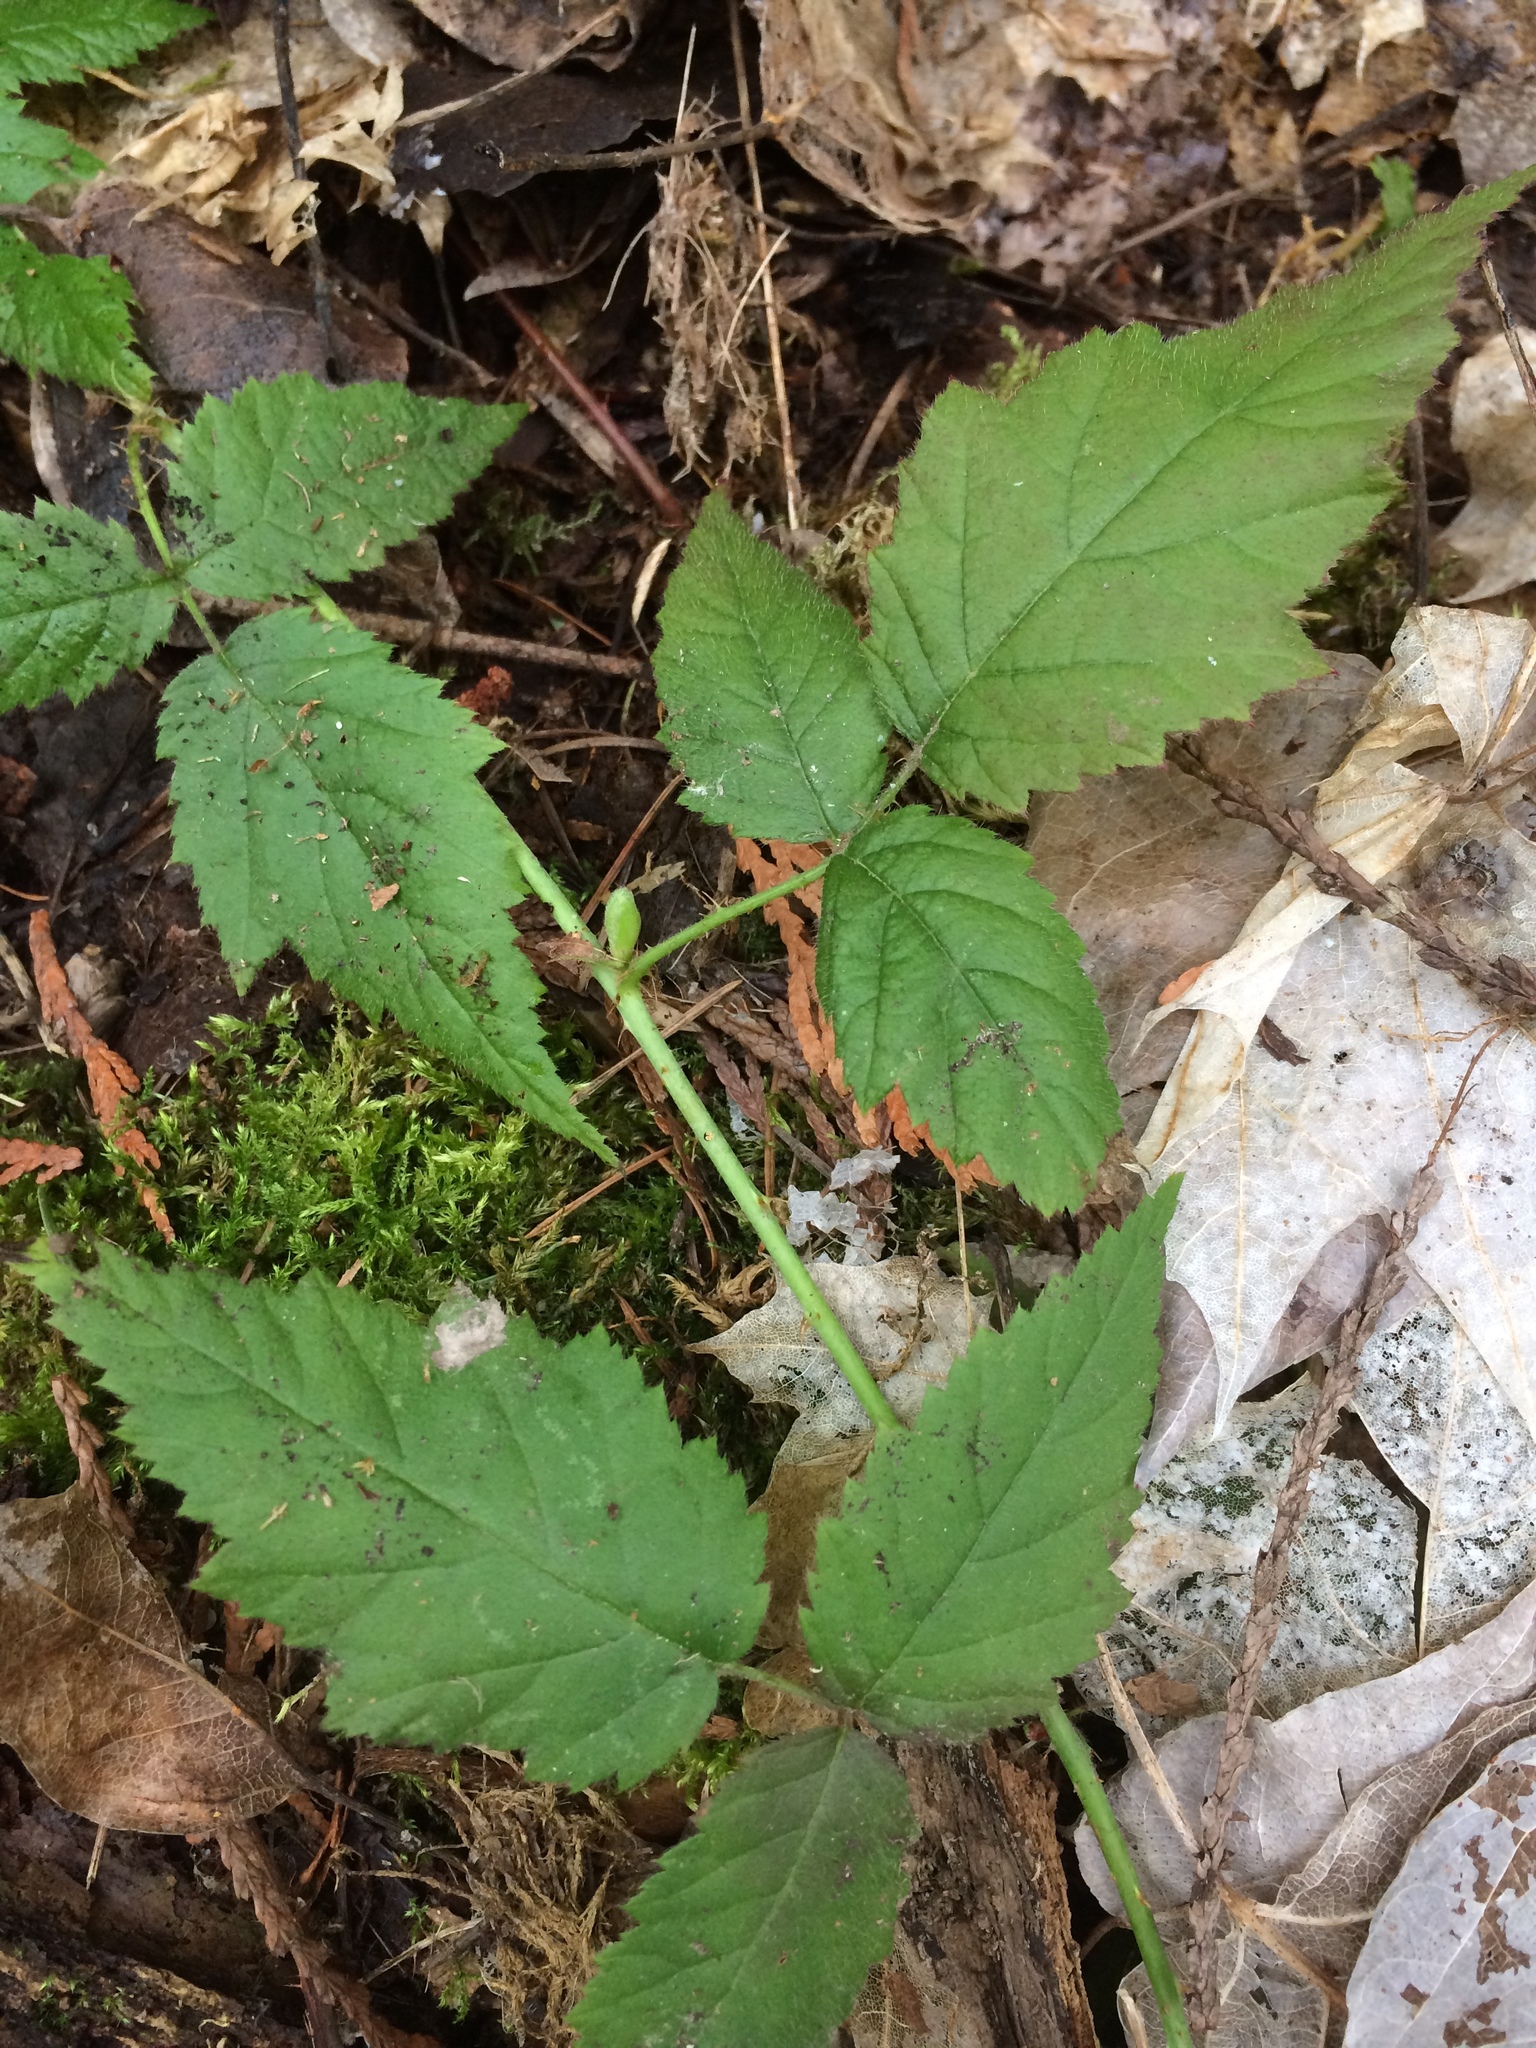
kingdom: Plantae
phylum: Tracheophyta
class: Magnoliopsida
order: Rosales
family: Rosaceae
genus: Rubus
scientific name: Rubus ursinus
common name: Pacific blackberry
